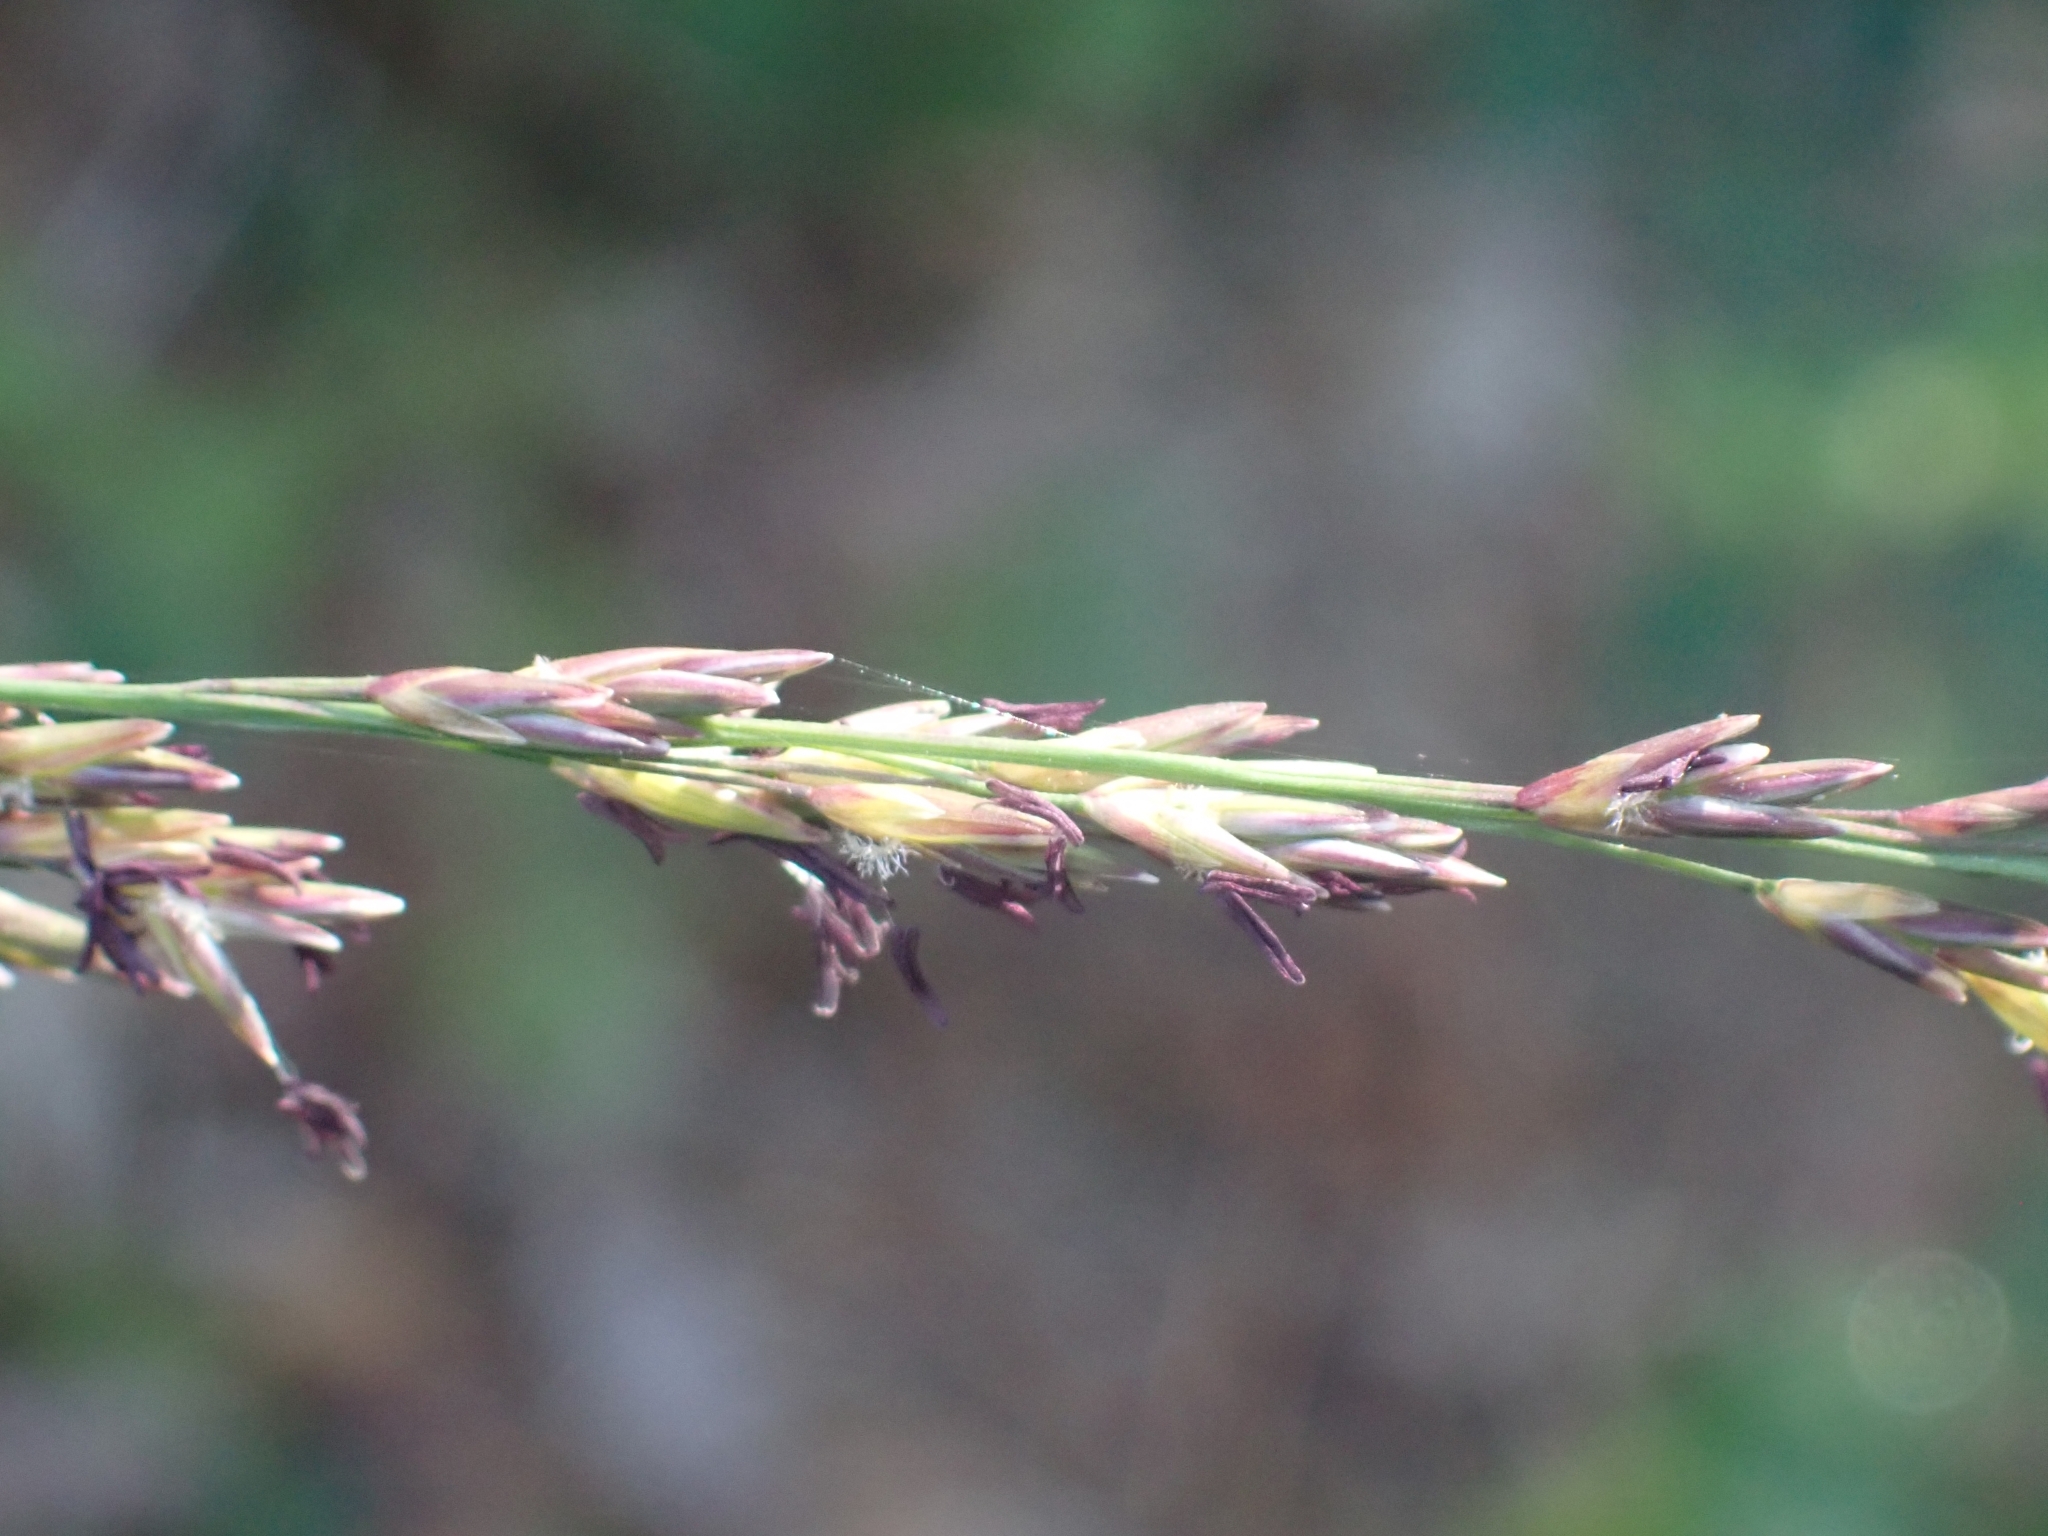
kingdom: Plantae
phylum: Tracheophyta
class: Liliopsida
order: Poales
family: Poaceae
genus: Molinia
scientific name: Molinia caerulea
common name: Purple moor-grass
